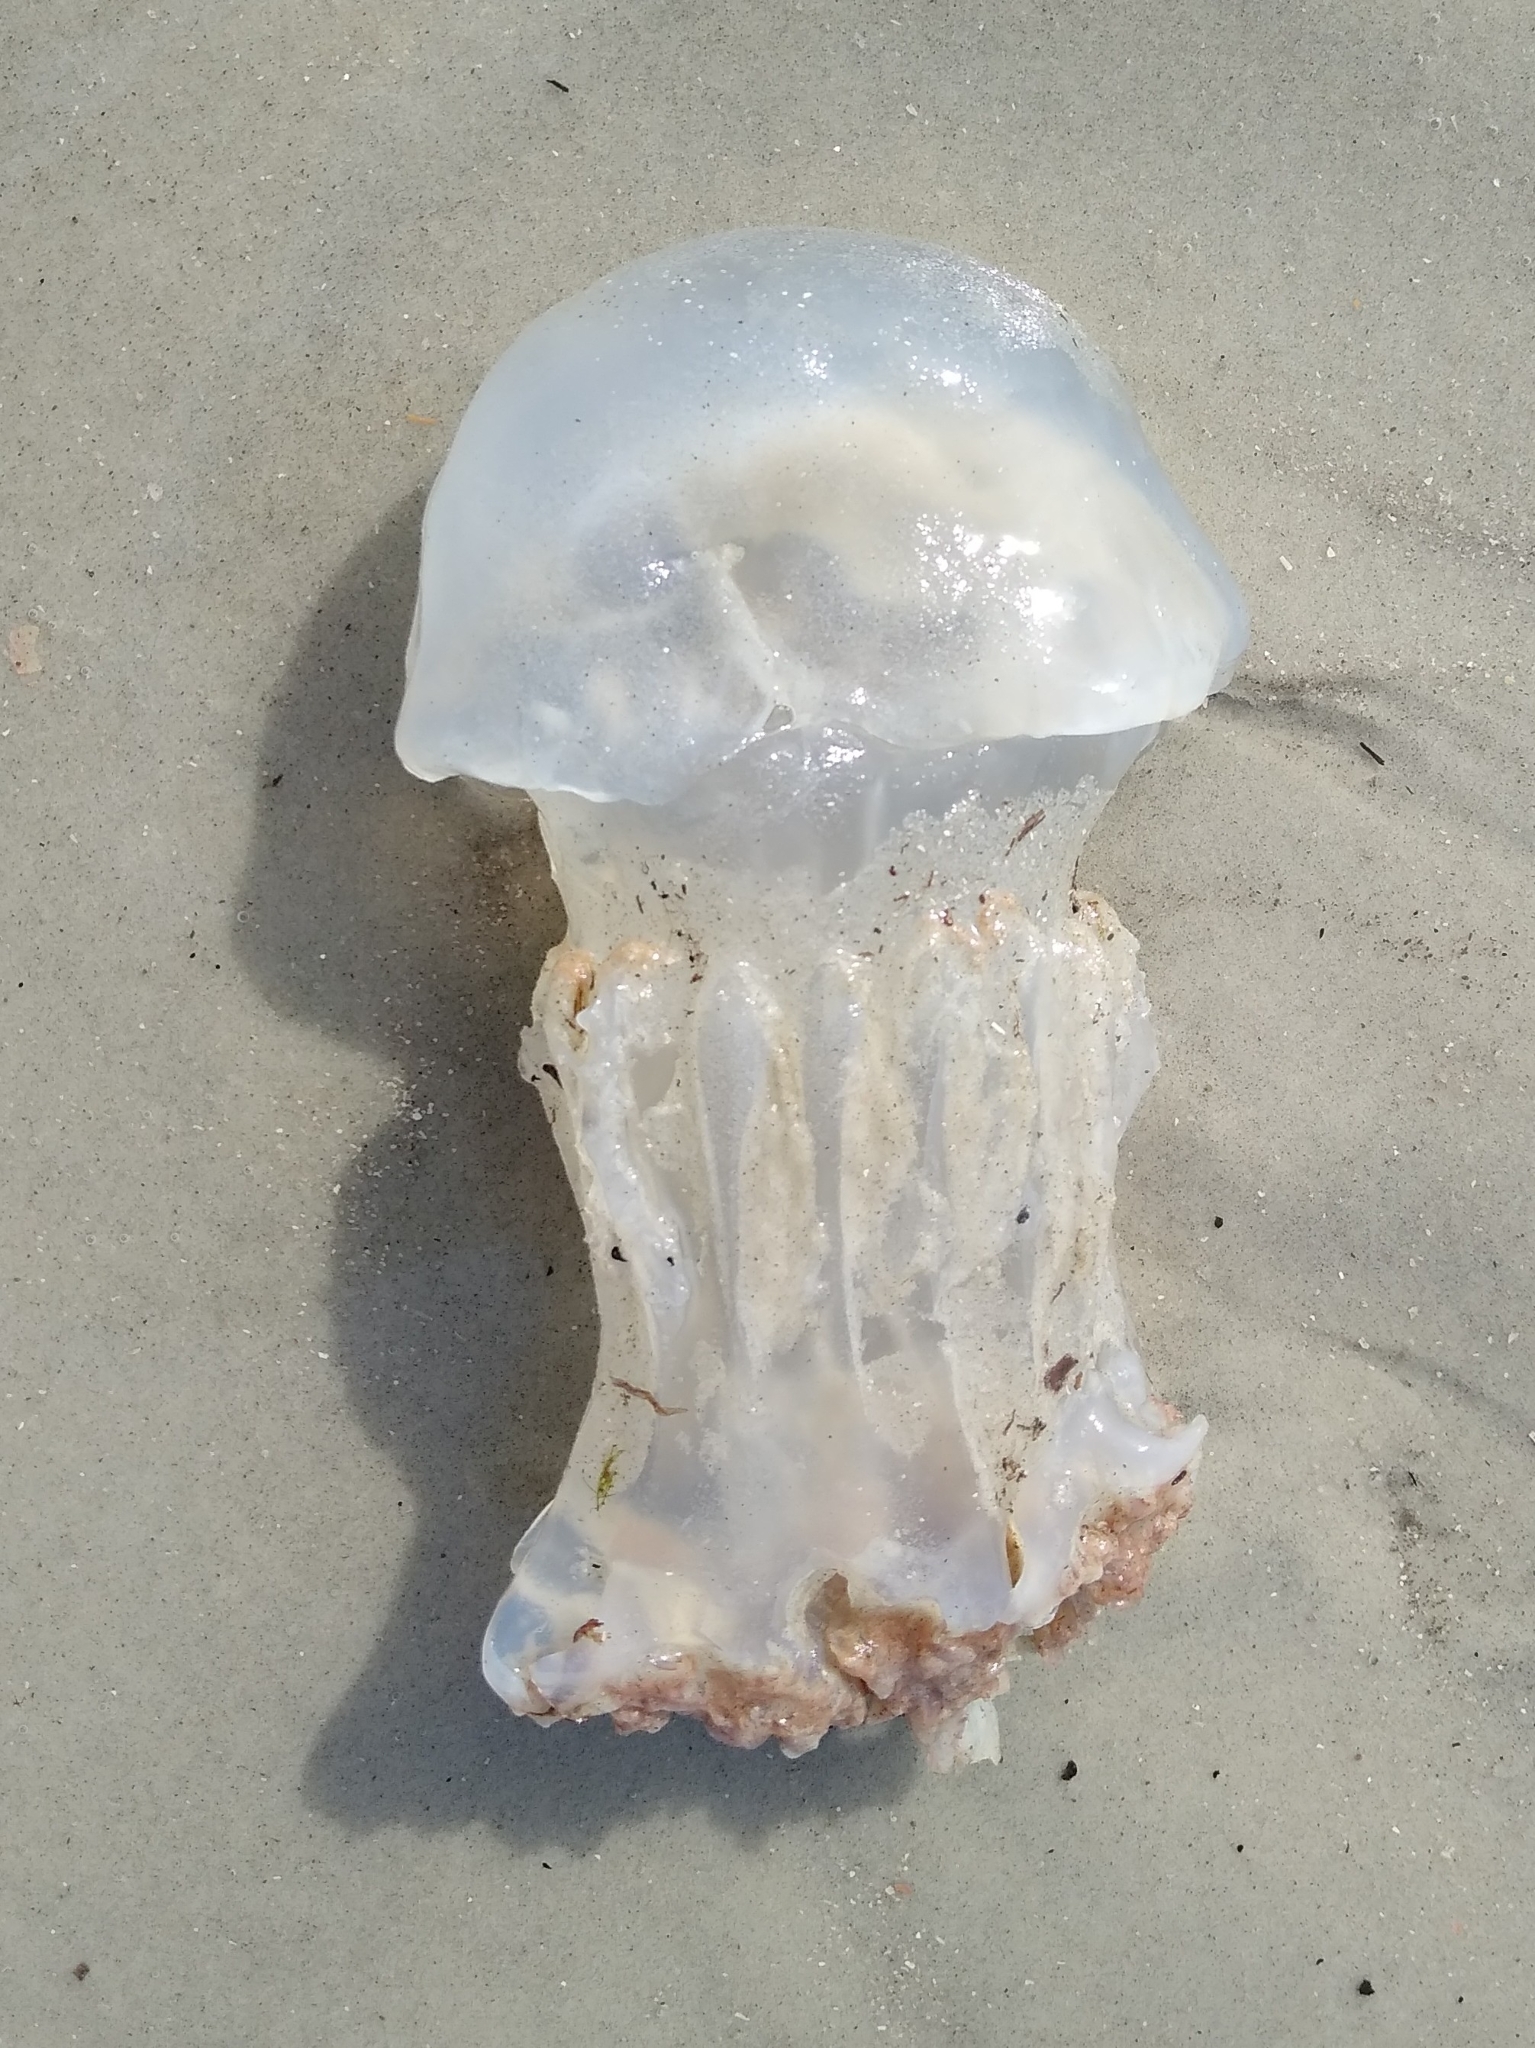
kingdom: Animalia
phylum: Cnidaria
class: Scyphozoa
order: Rhizostomeae
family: Stomolophidae
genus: Stomolophus
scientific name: Stomolophus meleagris
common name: Cabbagehead
